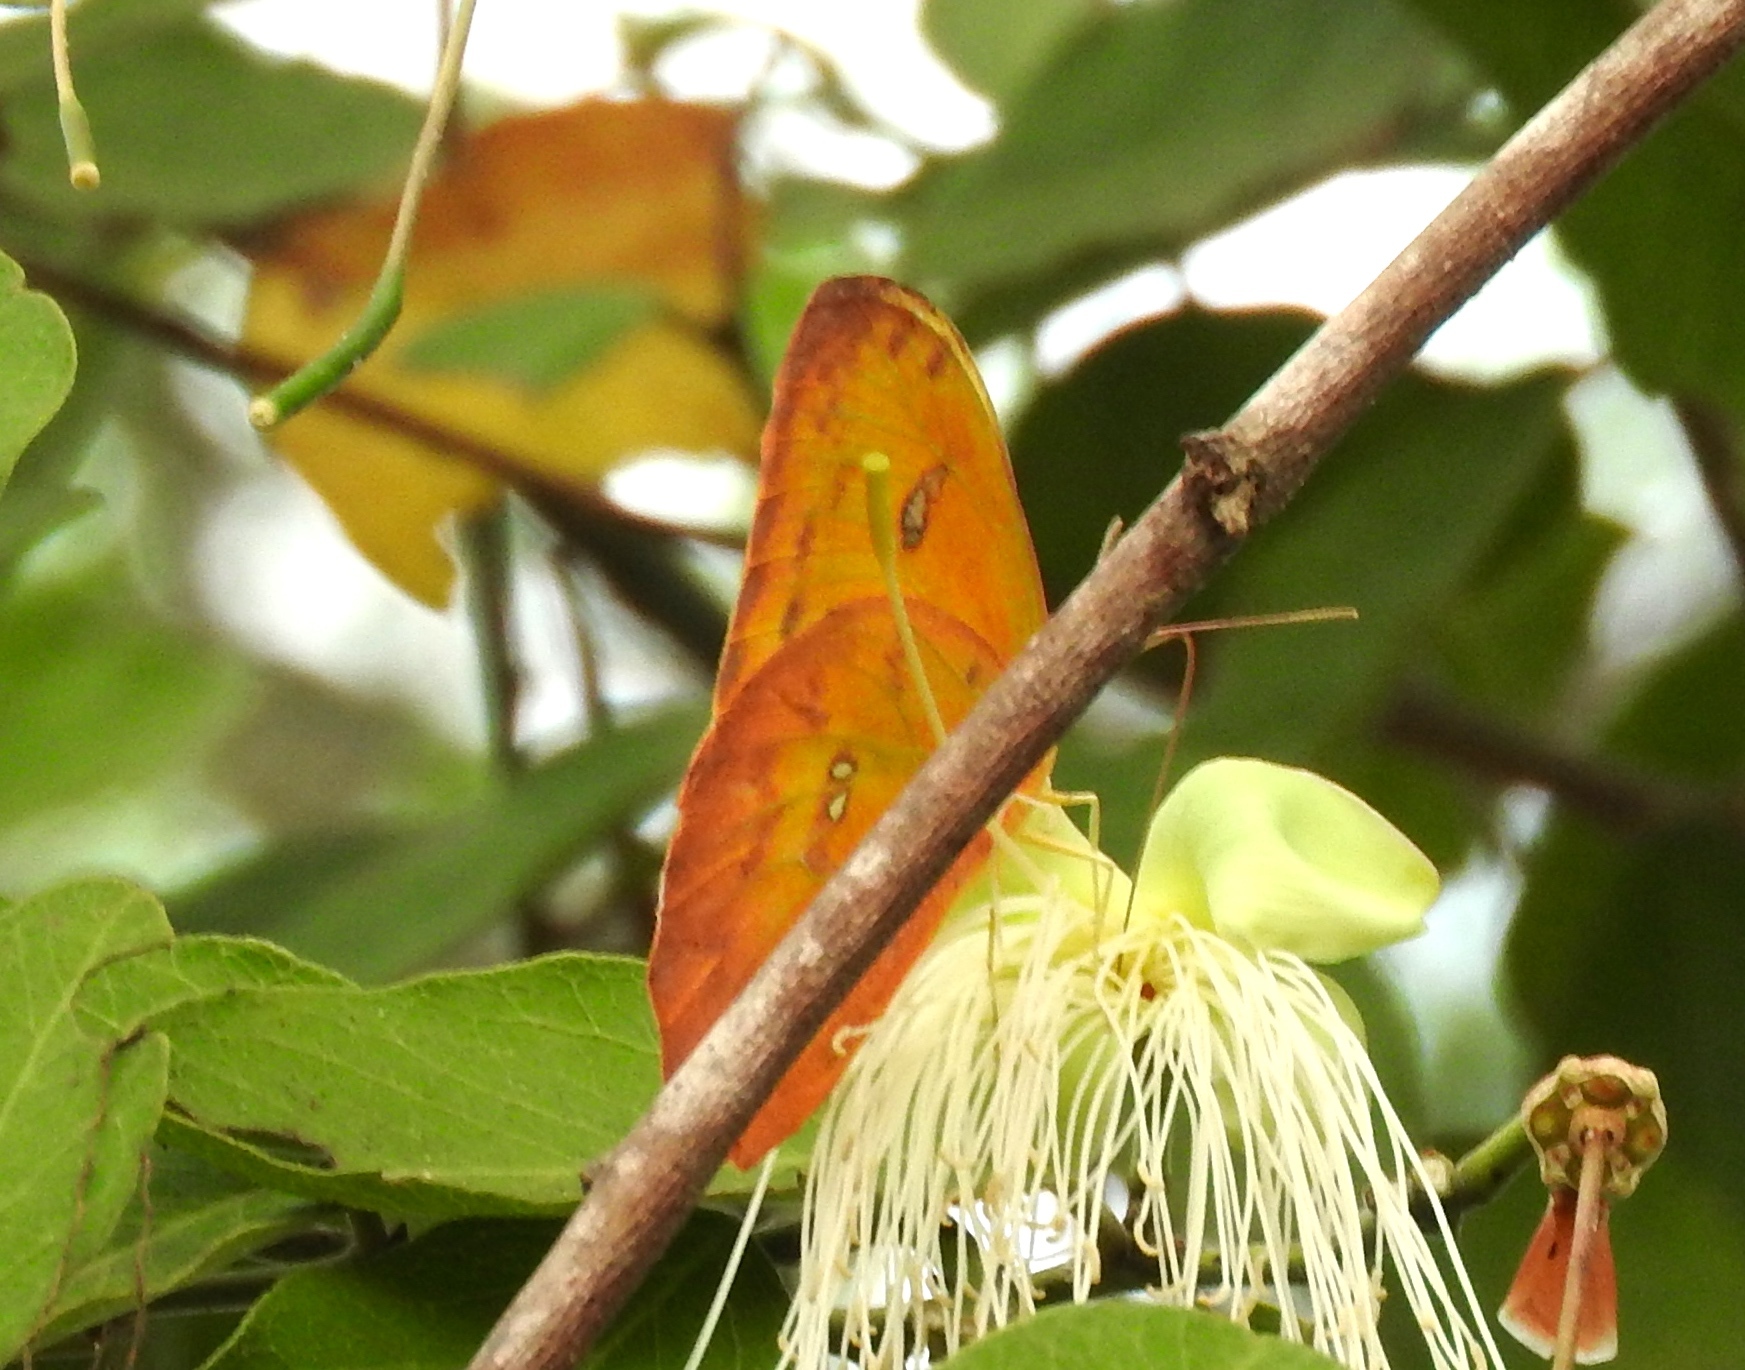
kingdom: Animalia
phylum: Arthropoda
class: Insecta
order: Lepidoptera
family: Pieridae
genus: Phoebis
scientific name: Phoebis philea
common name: Orange-barred giant sulphur
